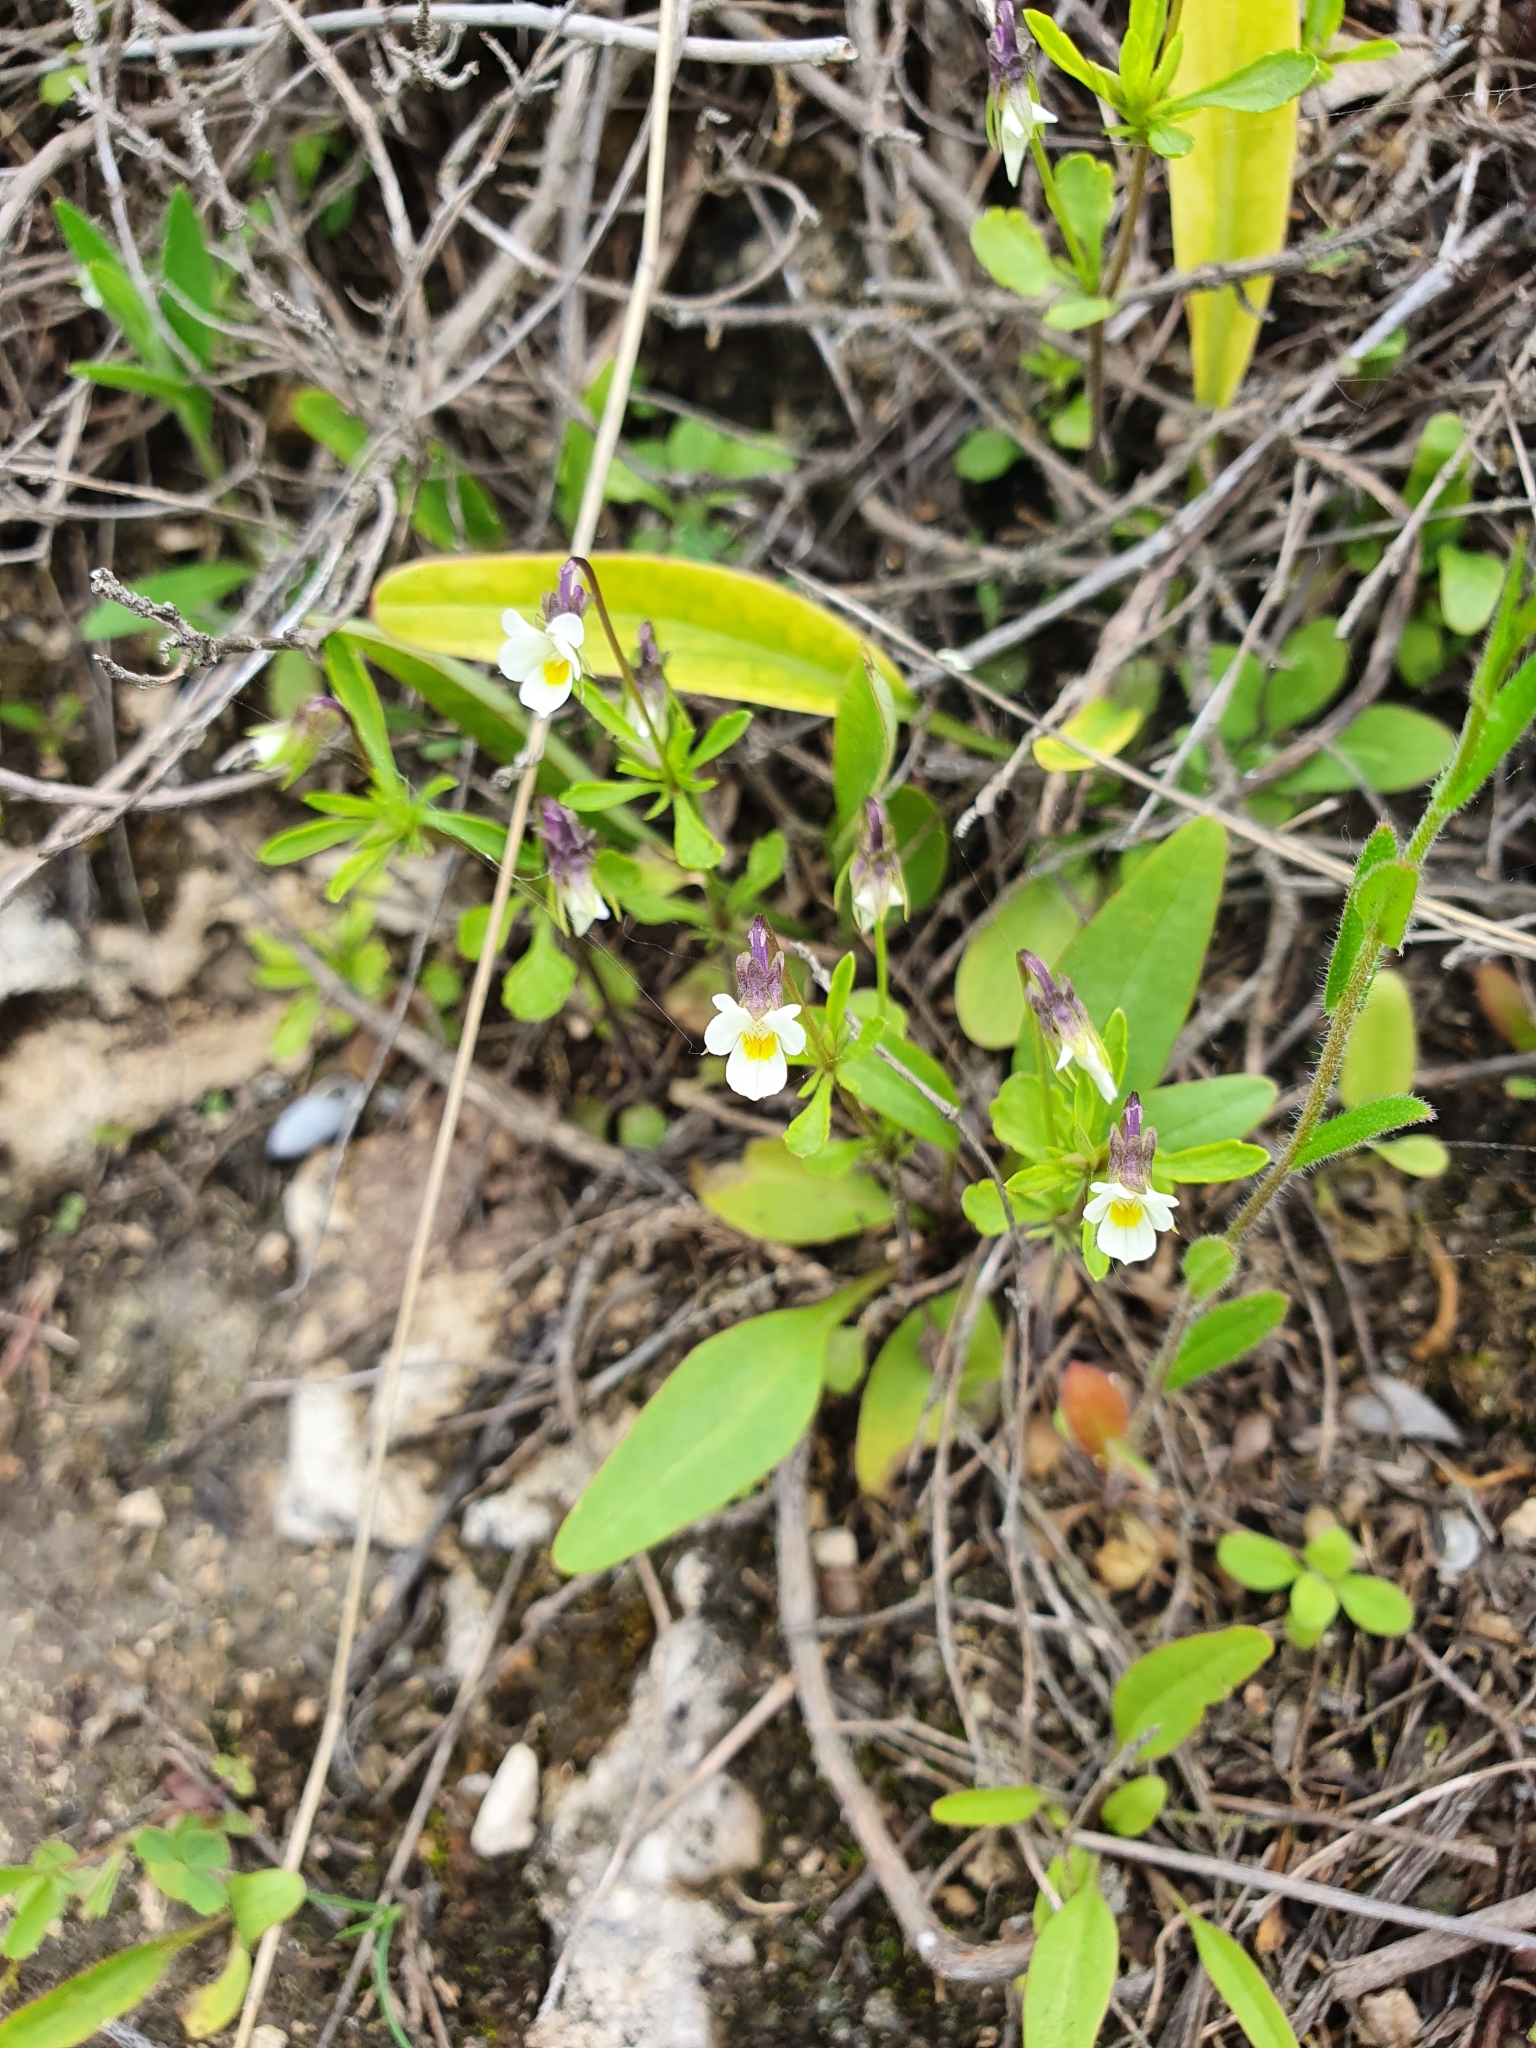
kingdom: Plantae
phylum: Tracheophyta
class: Magnoliopsida
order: Malpighiales
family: Violaceae
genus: Viola
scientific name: Viola contempta
